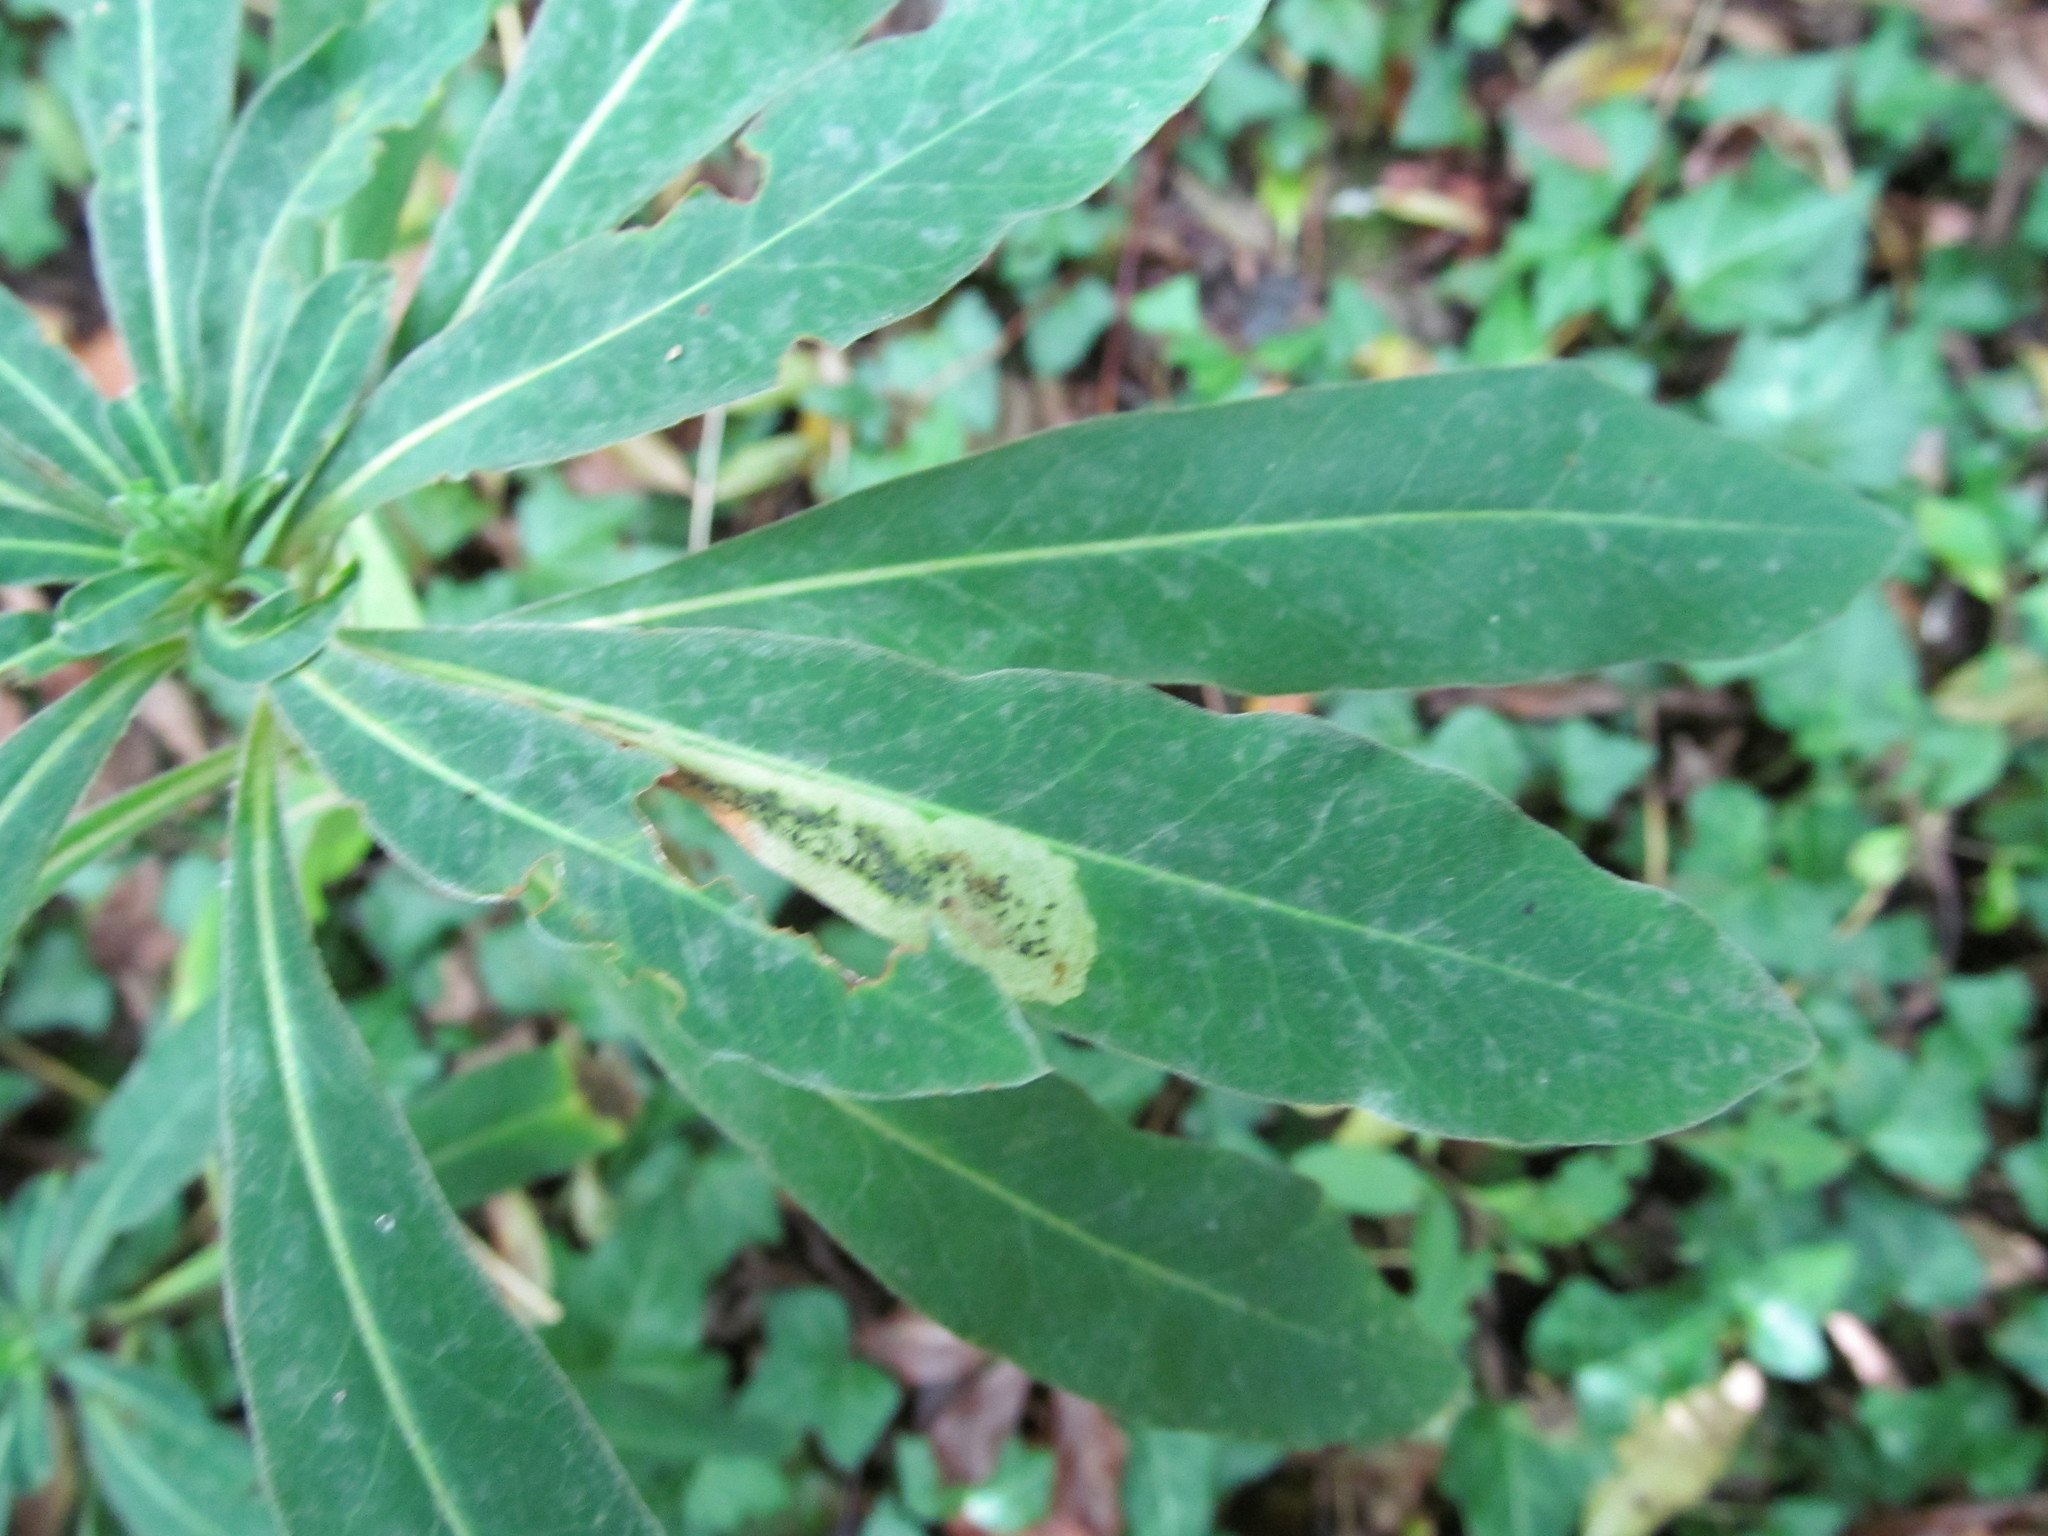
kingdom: Animalia
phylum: Arthropoda
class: Insecta
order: Diptera
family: Agromyzidae
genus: Liriomyza
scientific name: Liriomyza pascuum
